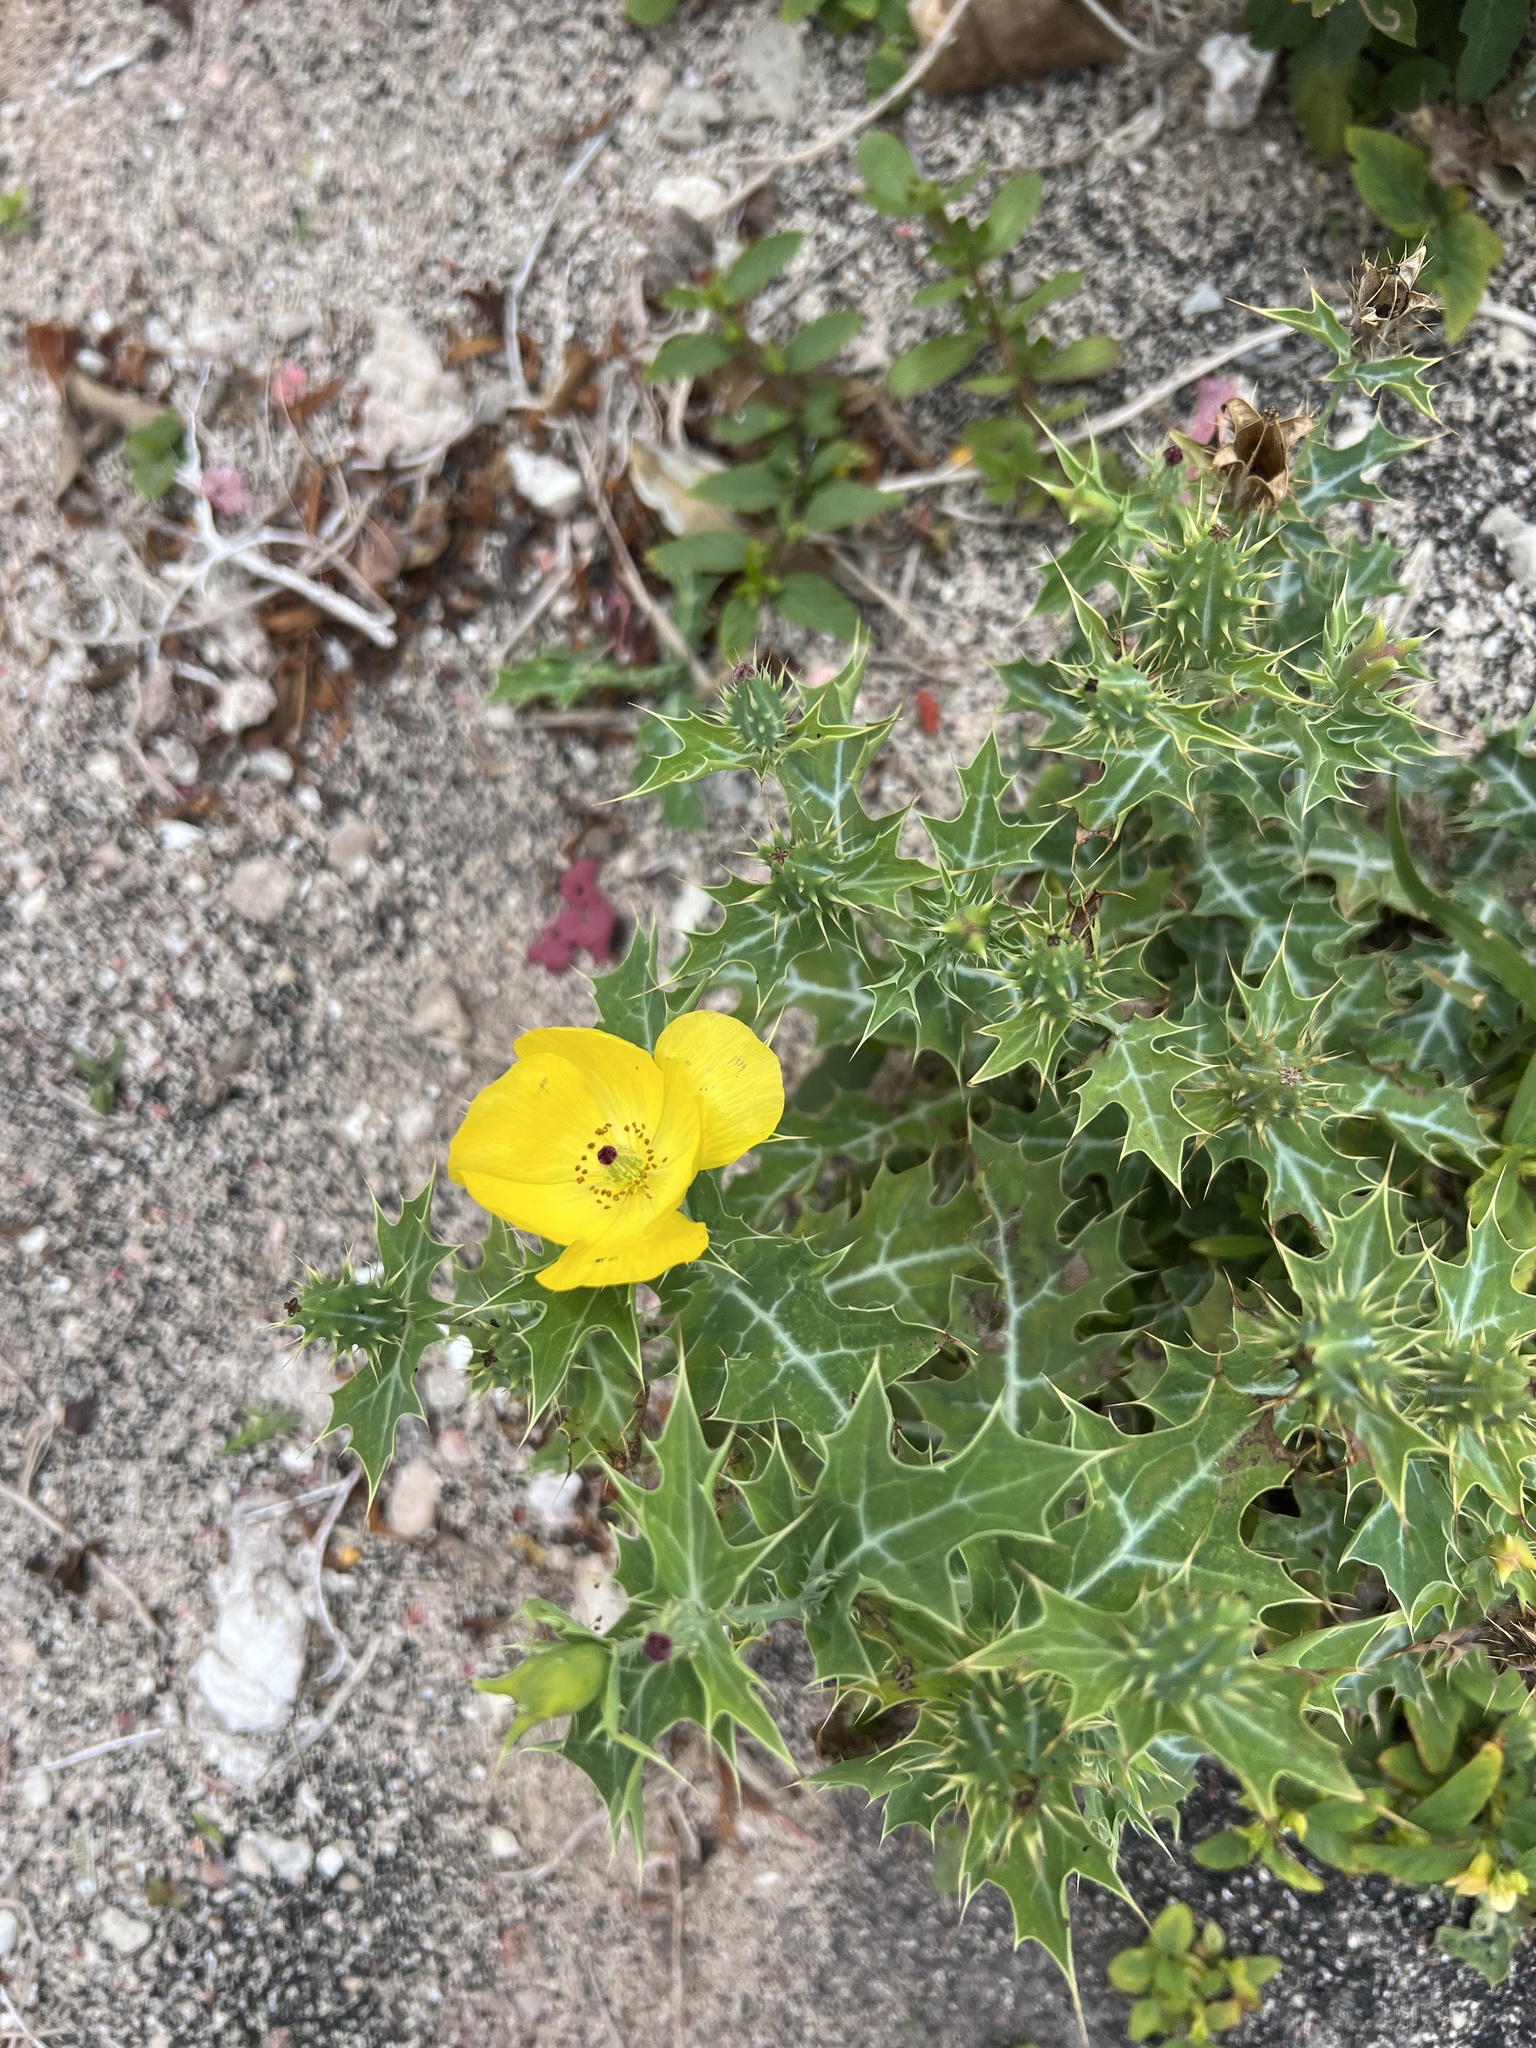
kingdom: Plantae
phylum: Tracheophyta
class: Magnoliopsida
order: Ranunculales
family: Papaveraceae
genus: Argemone
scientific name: Argemone mexicana
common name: Mexican poppy
